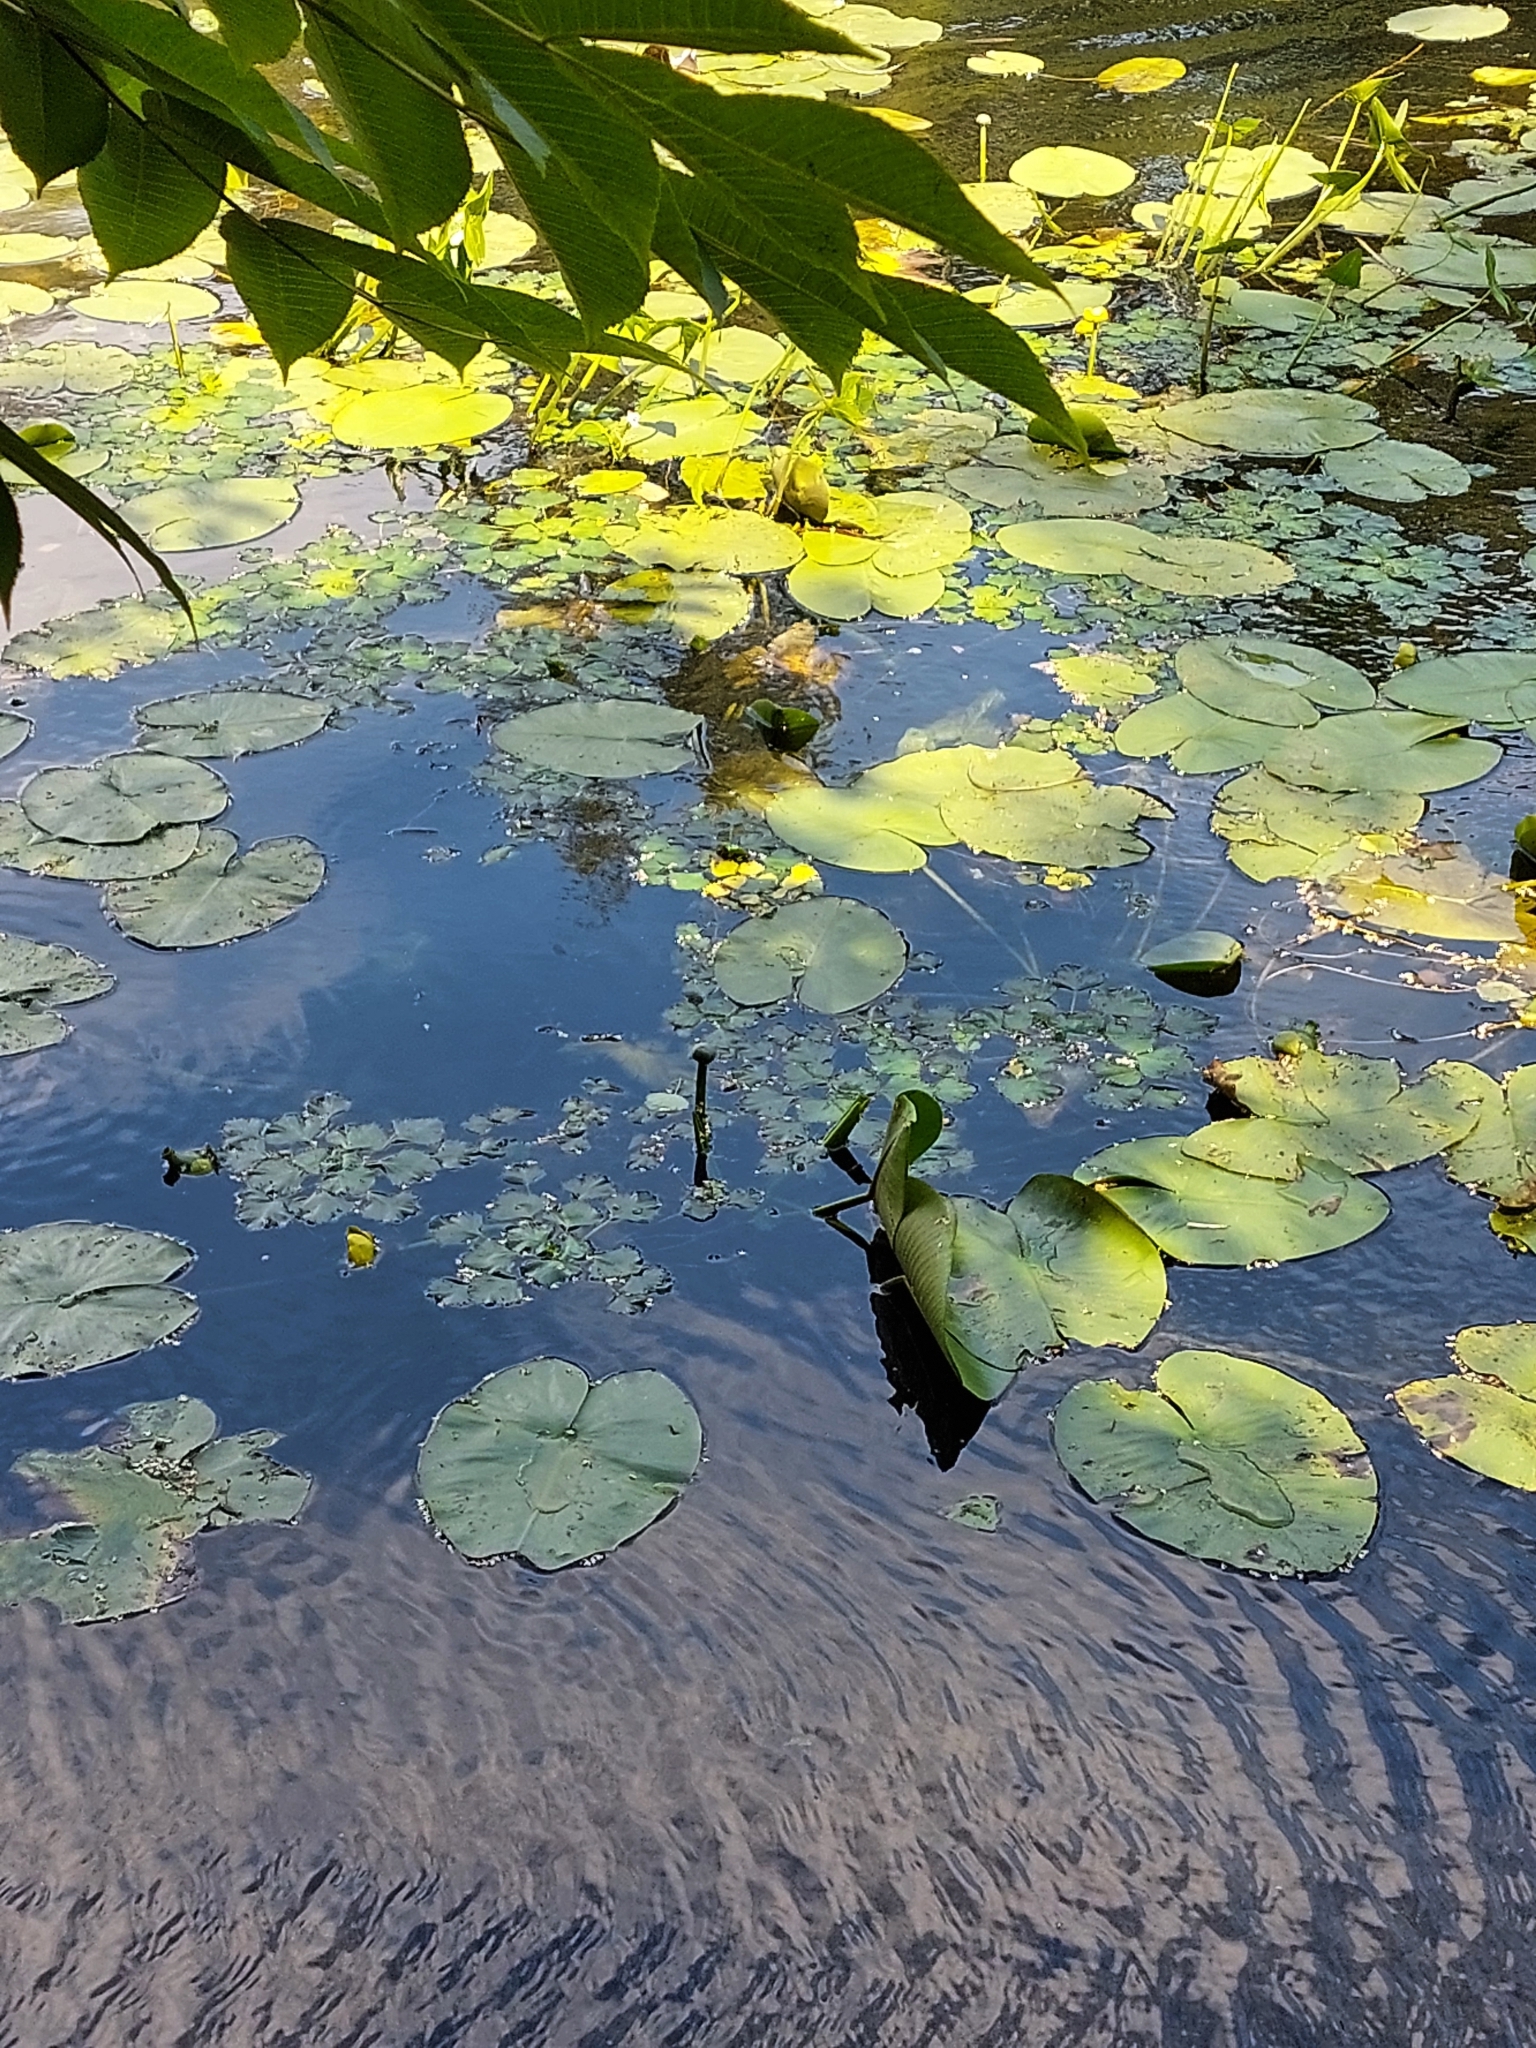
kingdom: Plantae
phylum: Tracheophyta
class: Magnoliopsida
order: Myrtales
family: Lythraceae
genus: Trapa
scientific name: Trapa natans
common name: Water chestnut
